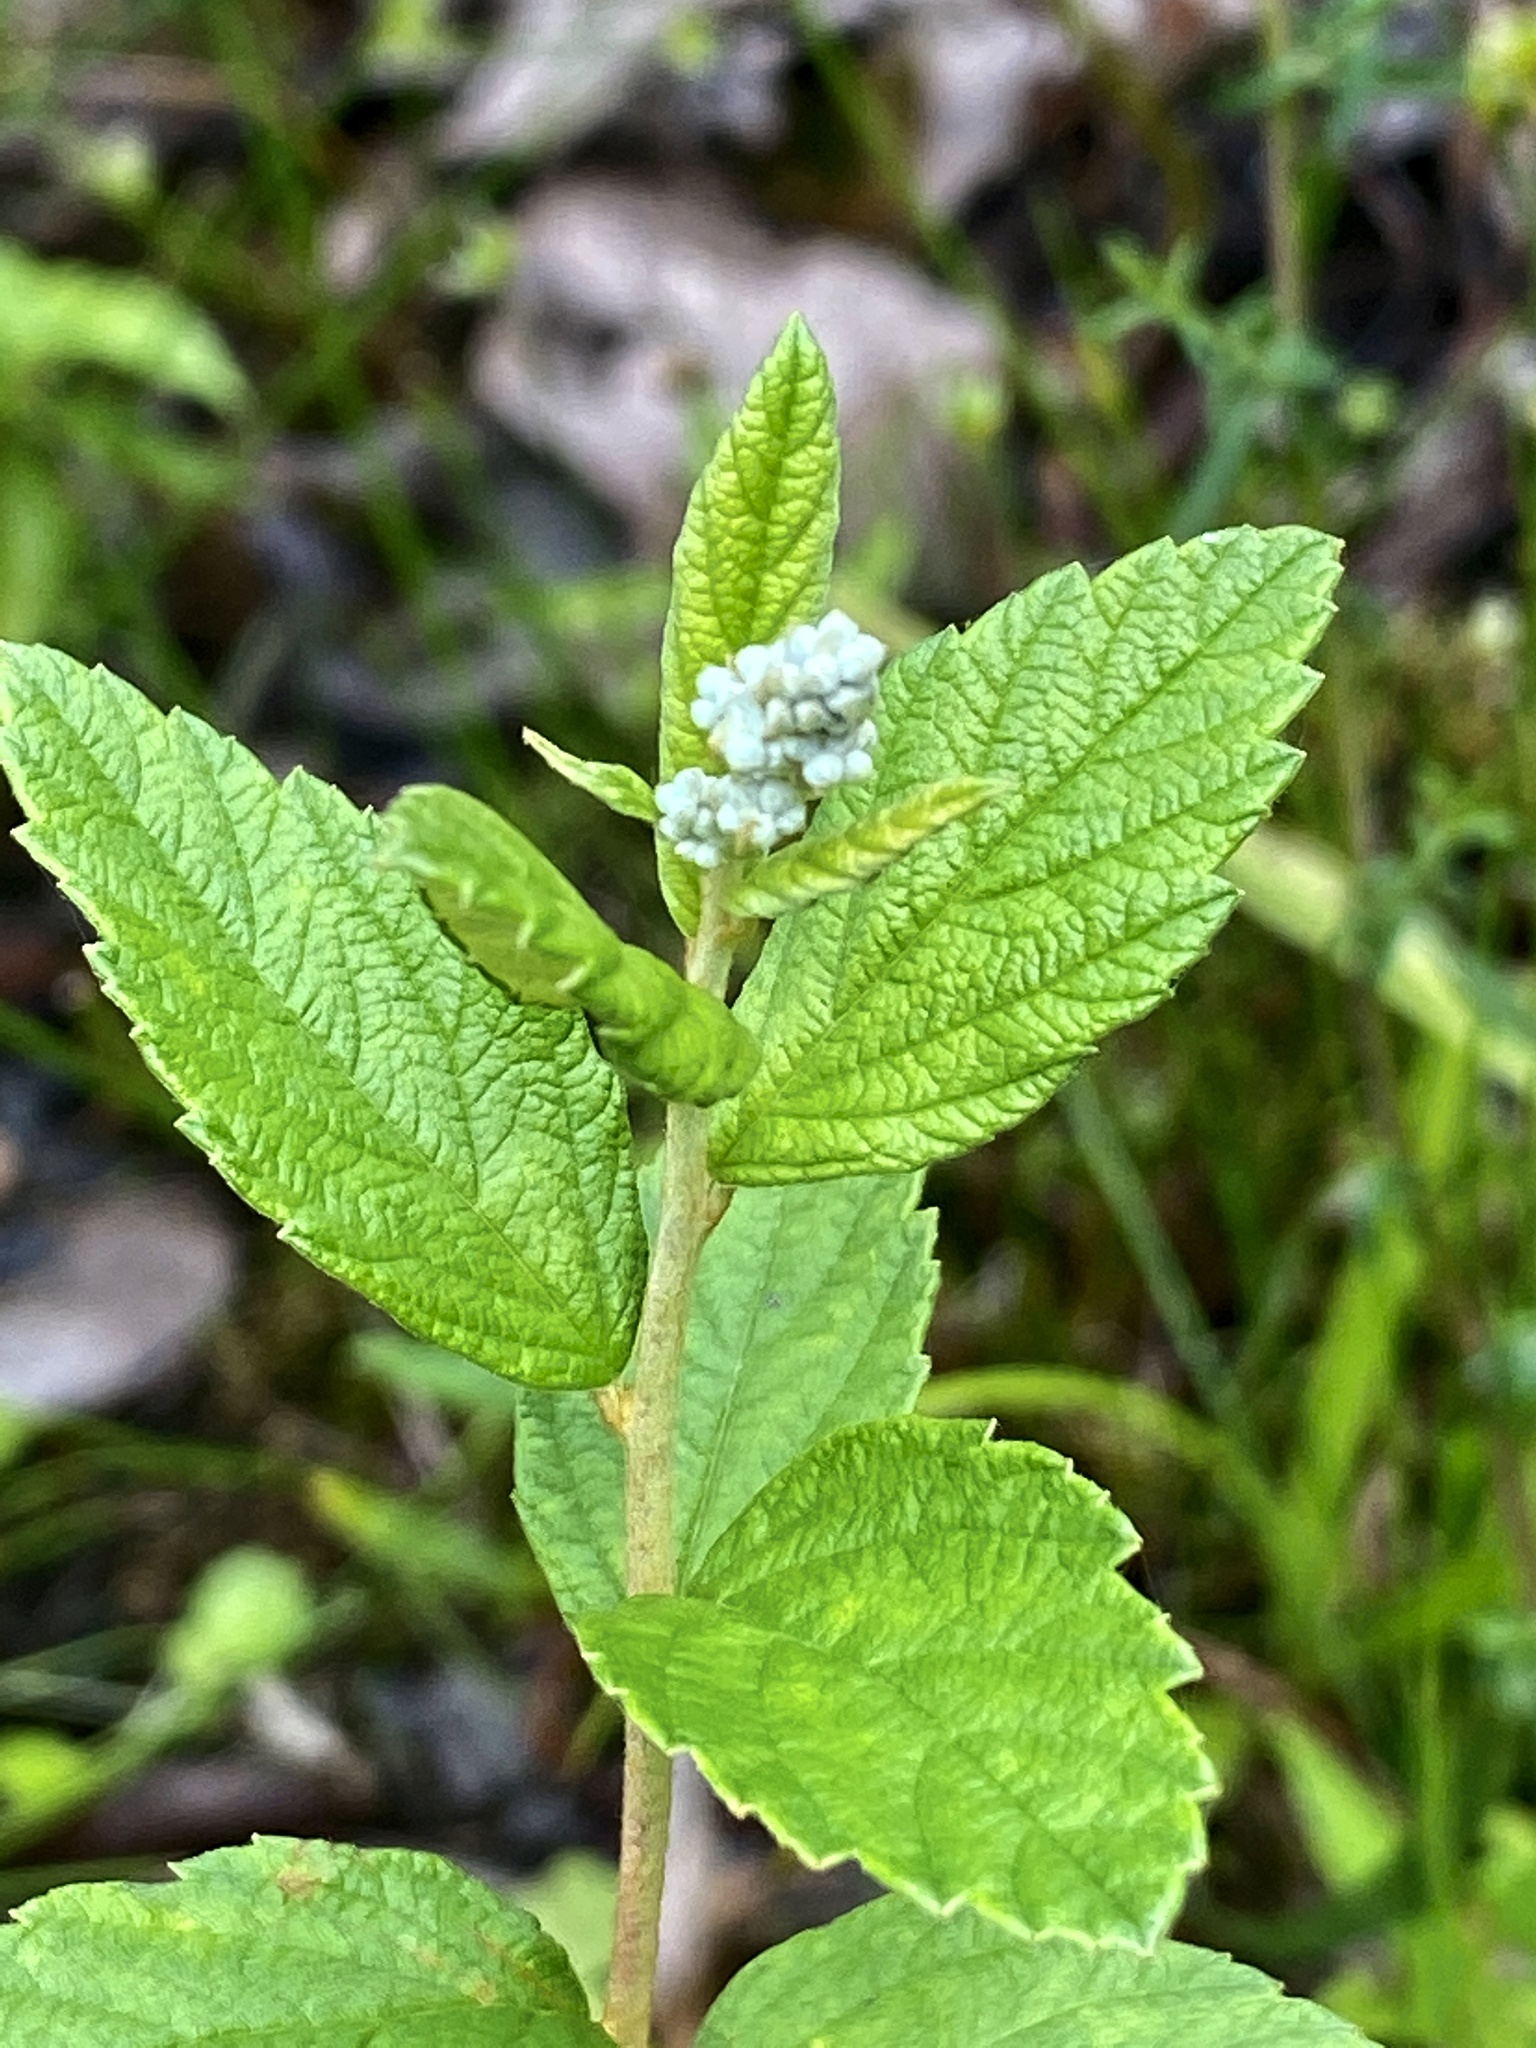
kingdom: Plantae
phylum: Tracheophyta
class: Magnoliopsida
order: Rosales
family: Rosaceae
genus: Spiraea
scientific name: Spiraea tomentosa
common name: Hardhack
